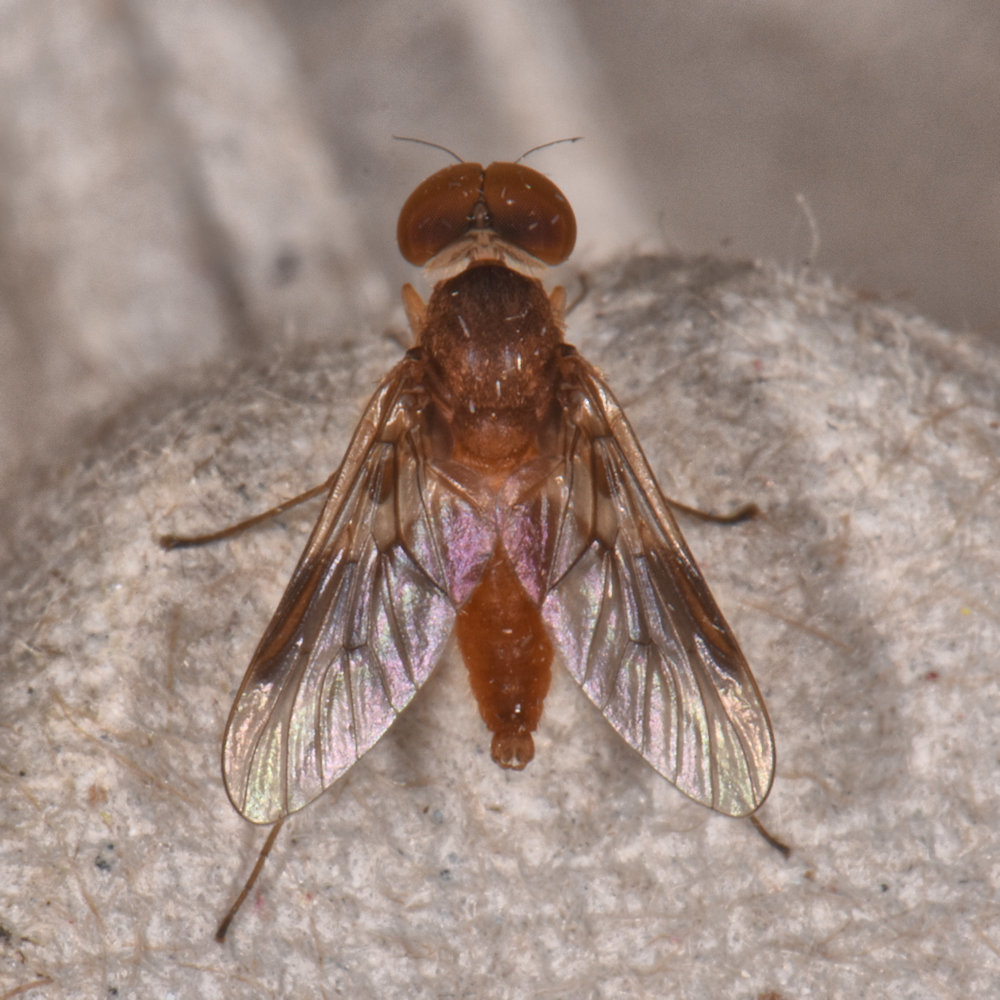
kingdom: Animalia
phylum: Arthropoda
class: Insecta
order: Diptera
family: Rhagionidae
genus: Chrysopilus
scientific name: Chrysopilus quadratus
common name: Quadrate snipe fly
